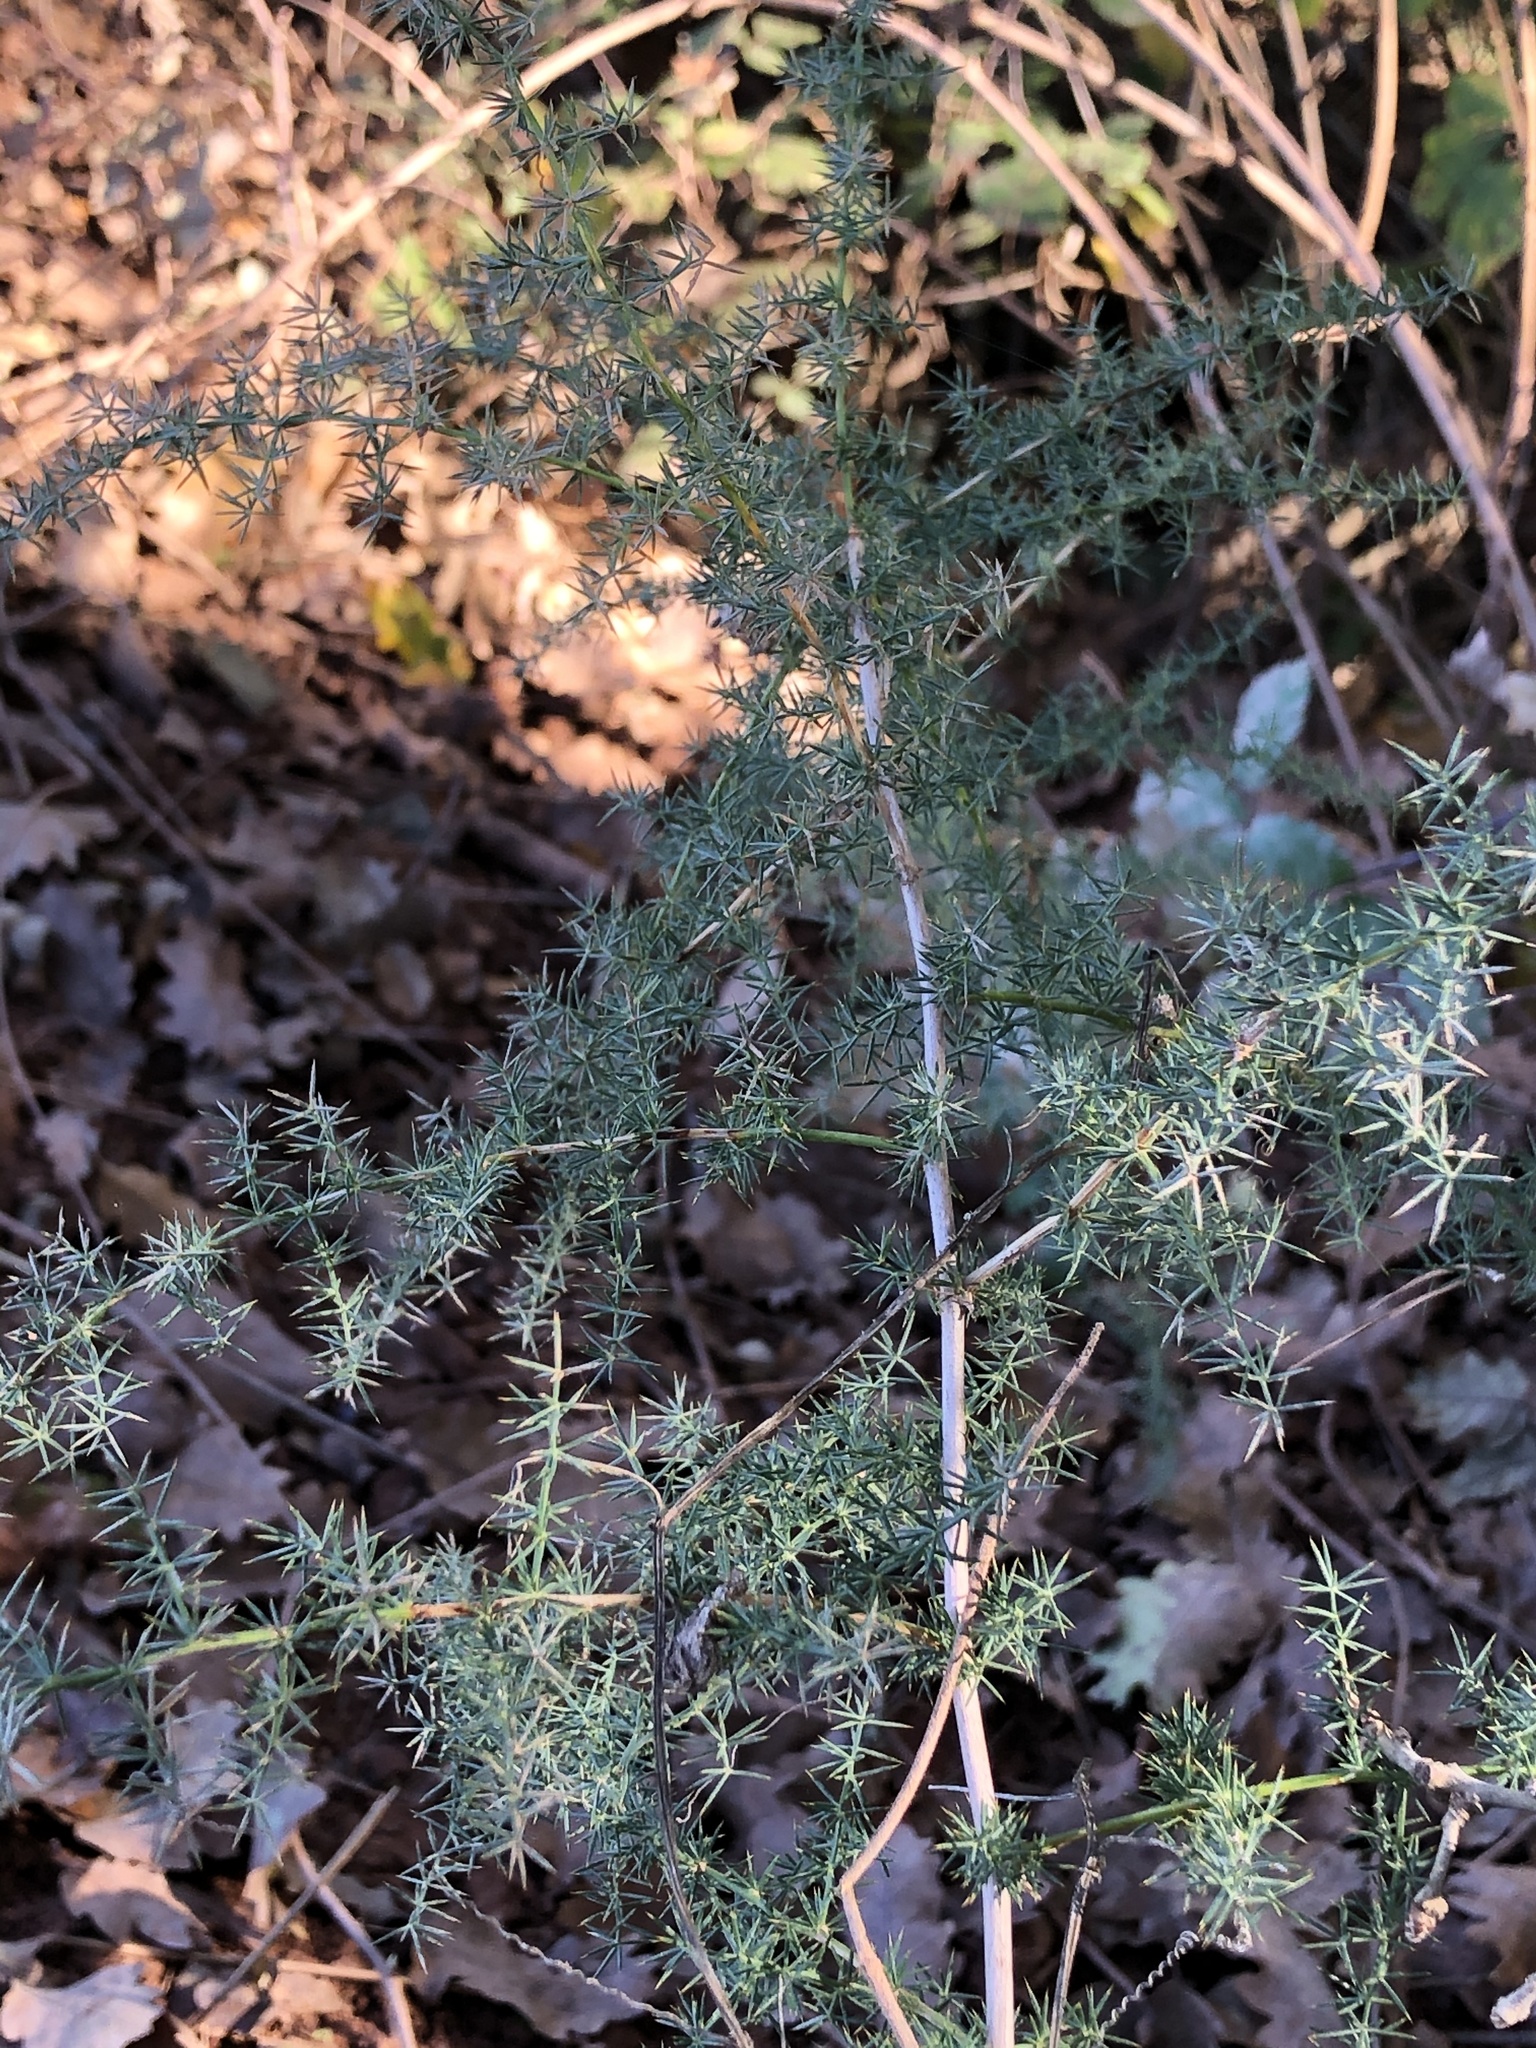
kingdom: Plantae
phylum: Tracheophyta
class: Liliopsida
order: Asparagales
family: Asparagaceae
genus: Asparagus
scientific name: Asparagus acutifolius
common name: Wild asparagus
